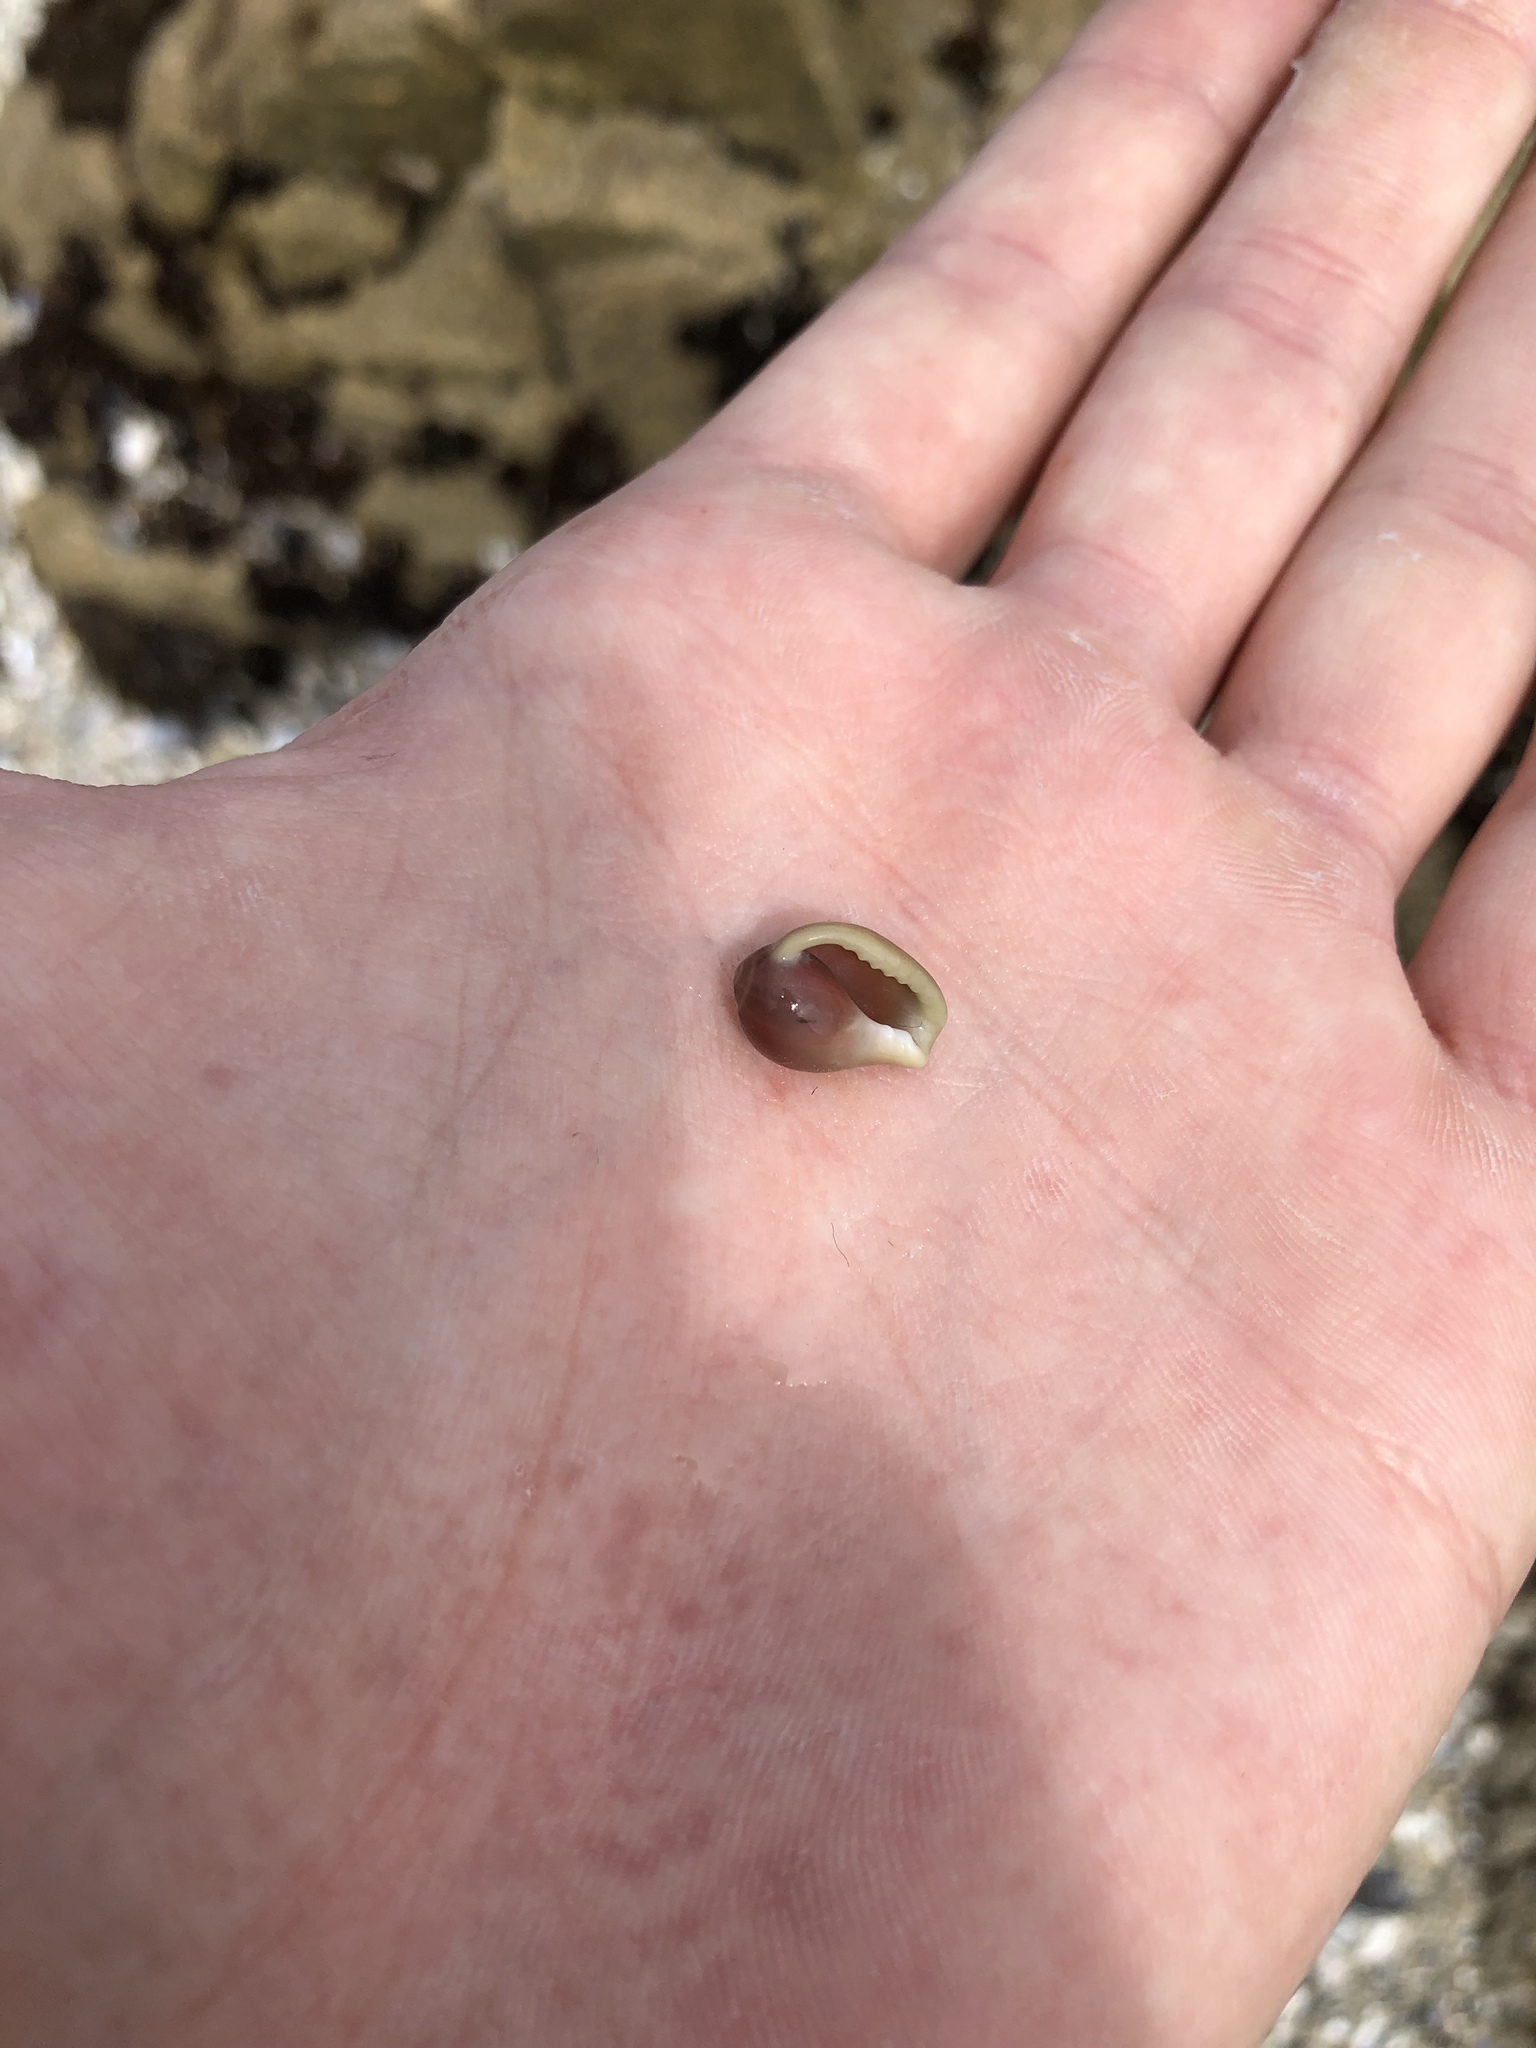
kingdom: Animalia
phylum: Mollusca
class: Gastropoda
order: Littorinimorpha
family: Eratoidae
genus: Hespererato
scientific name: Hespererato vitellina
